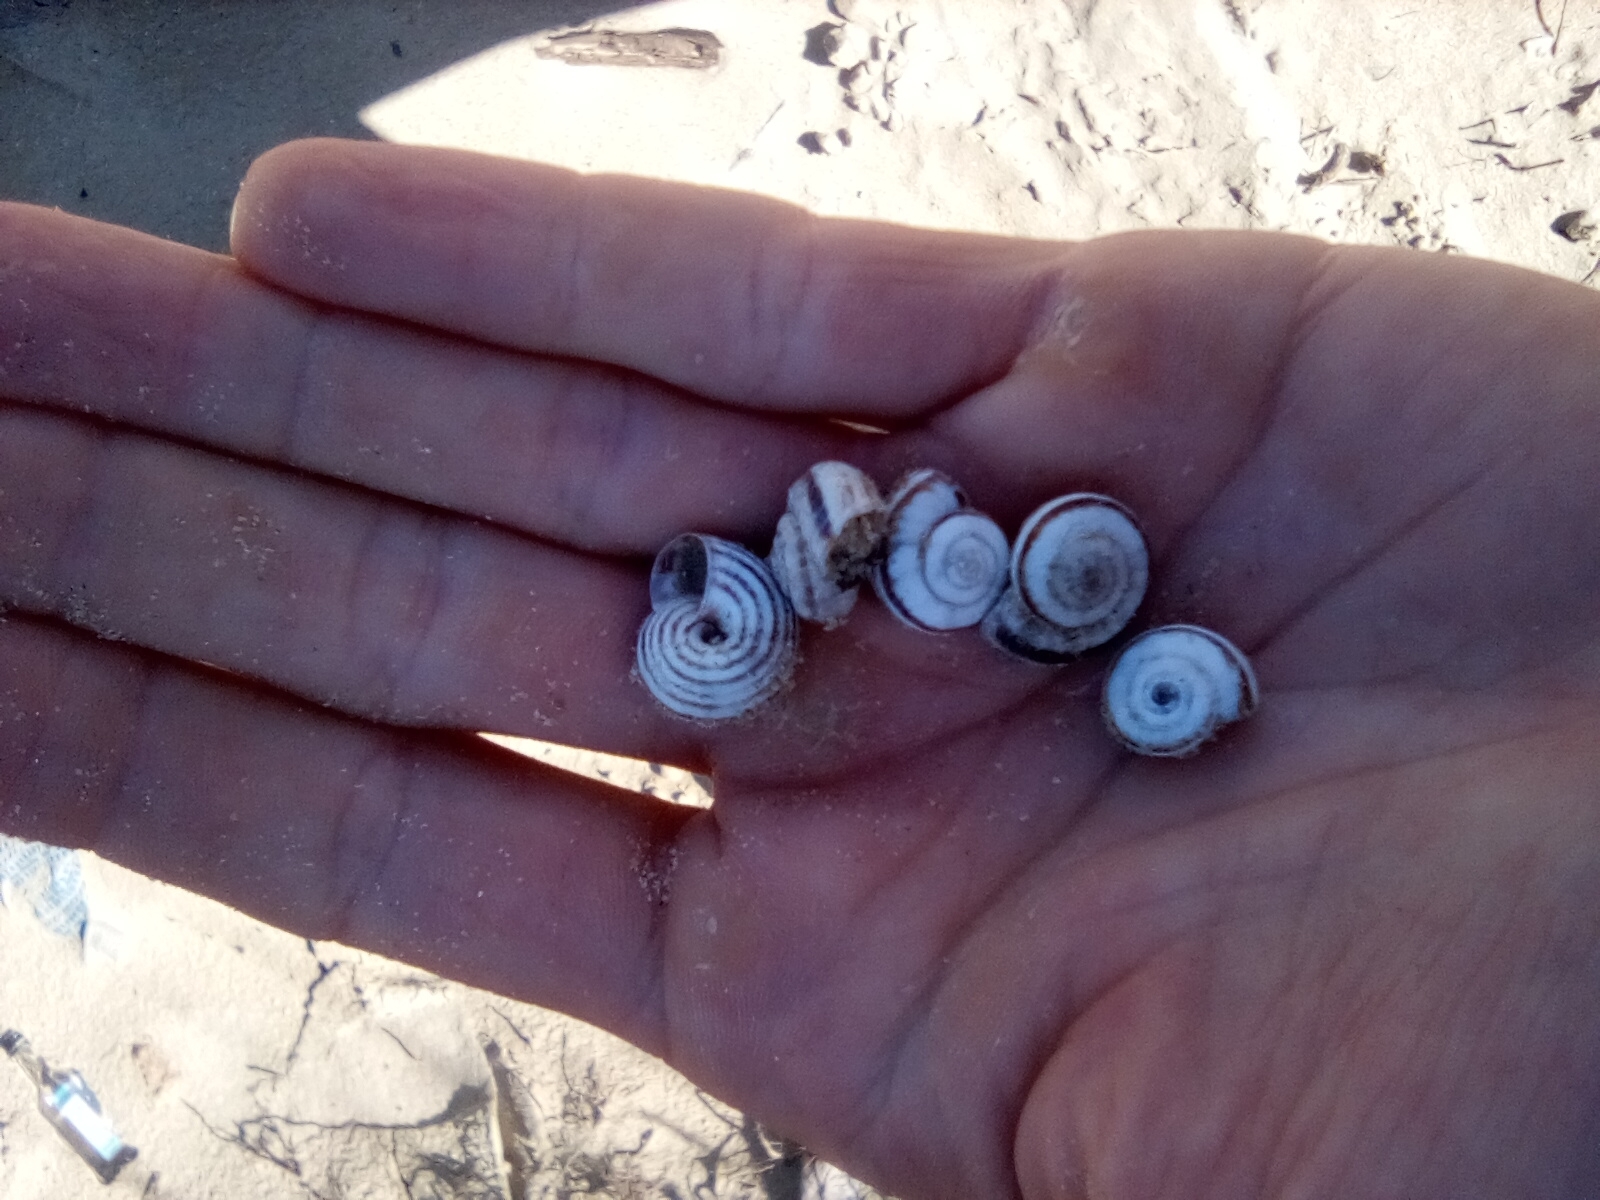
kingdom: Animalia
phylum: Mollusca
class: Gastropoda
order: Stylommatophora
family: Geomitridae
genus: Xeropicta
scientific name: Xeropicta krynickii
